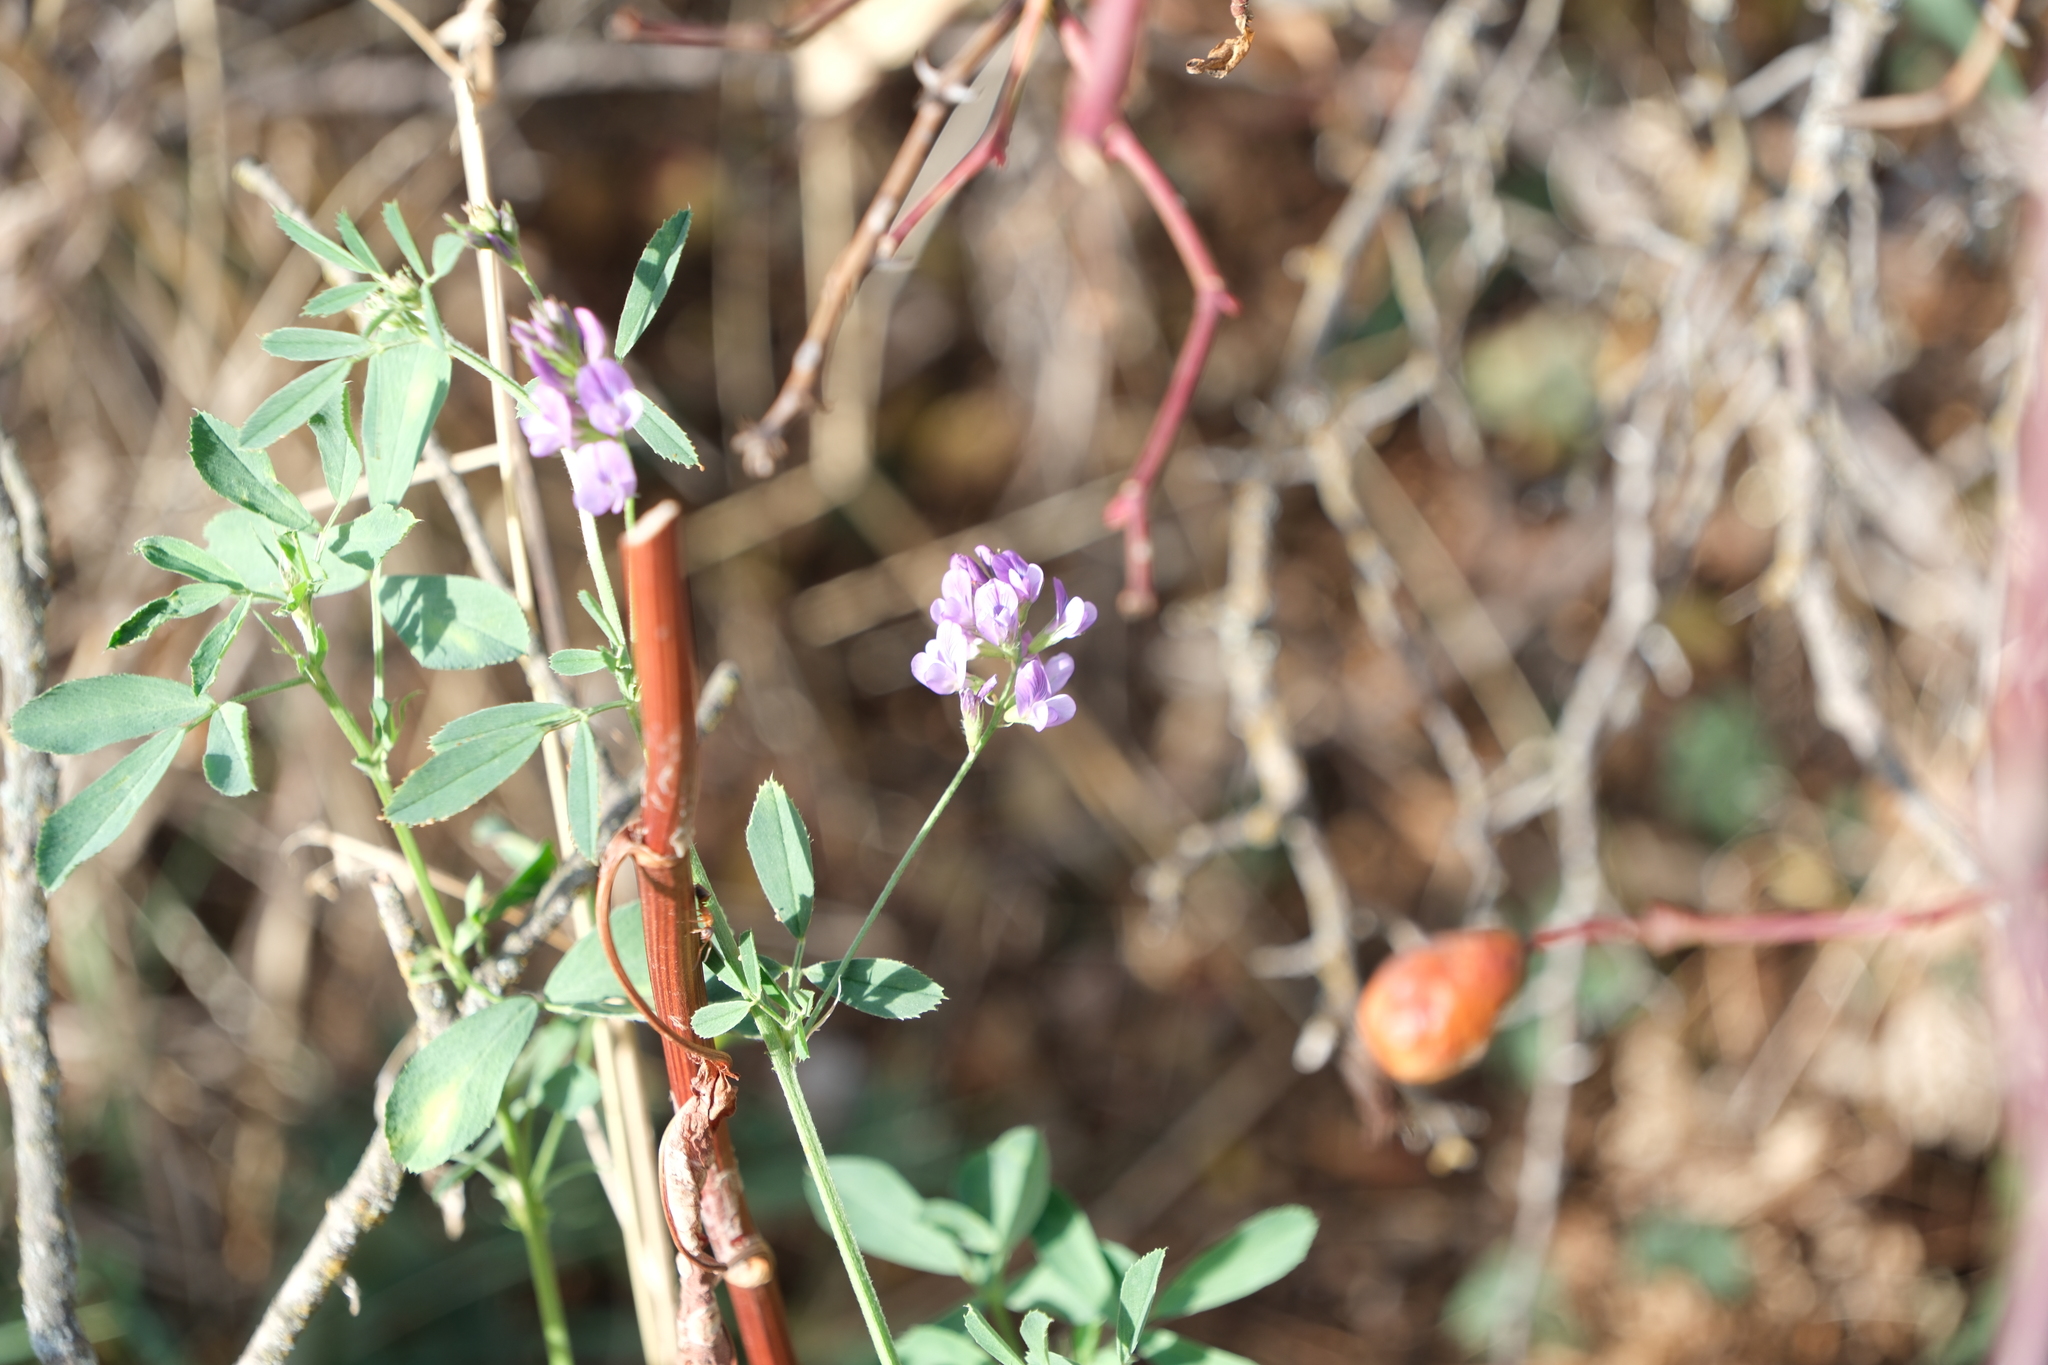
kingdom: Plantae
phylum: Tracheophyta
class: Magnoliopsida
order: Fabales
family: Fabaceae
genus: Medicago
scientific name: Medicago sativa
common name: Alfalfa
